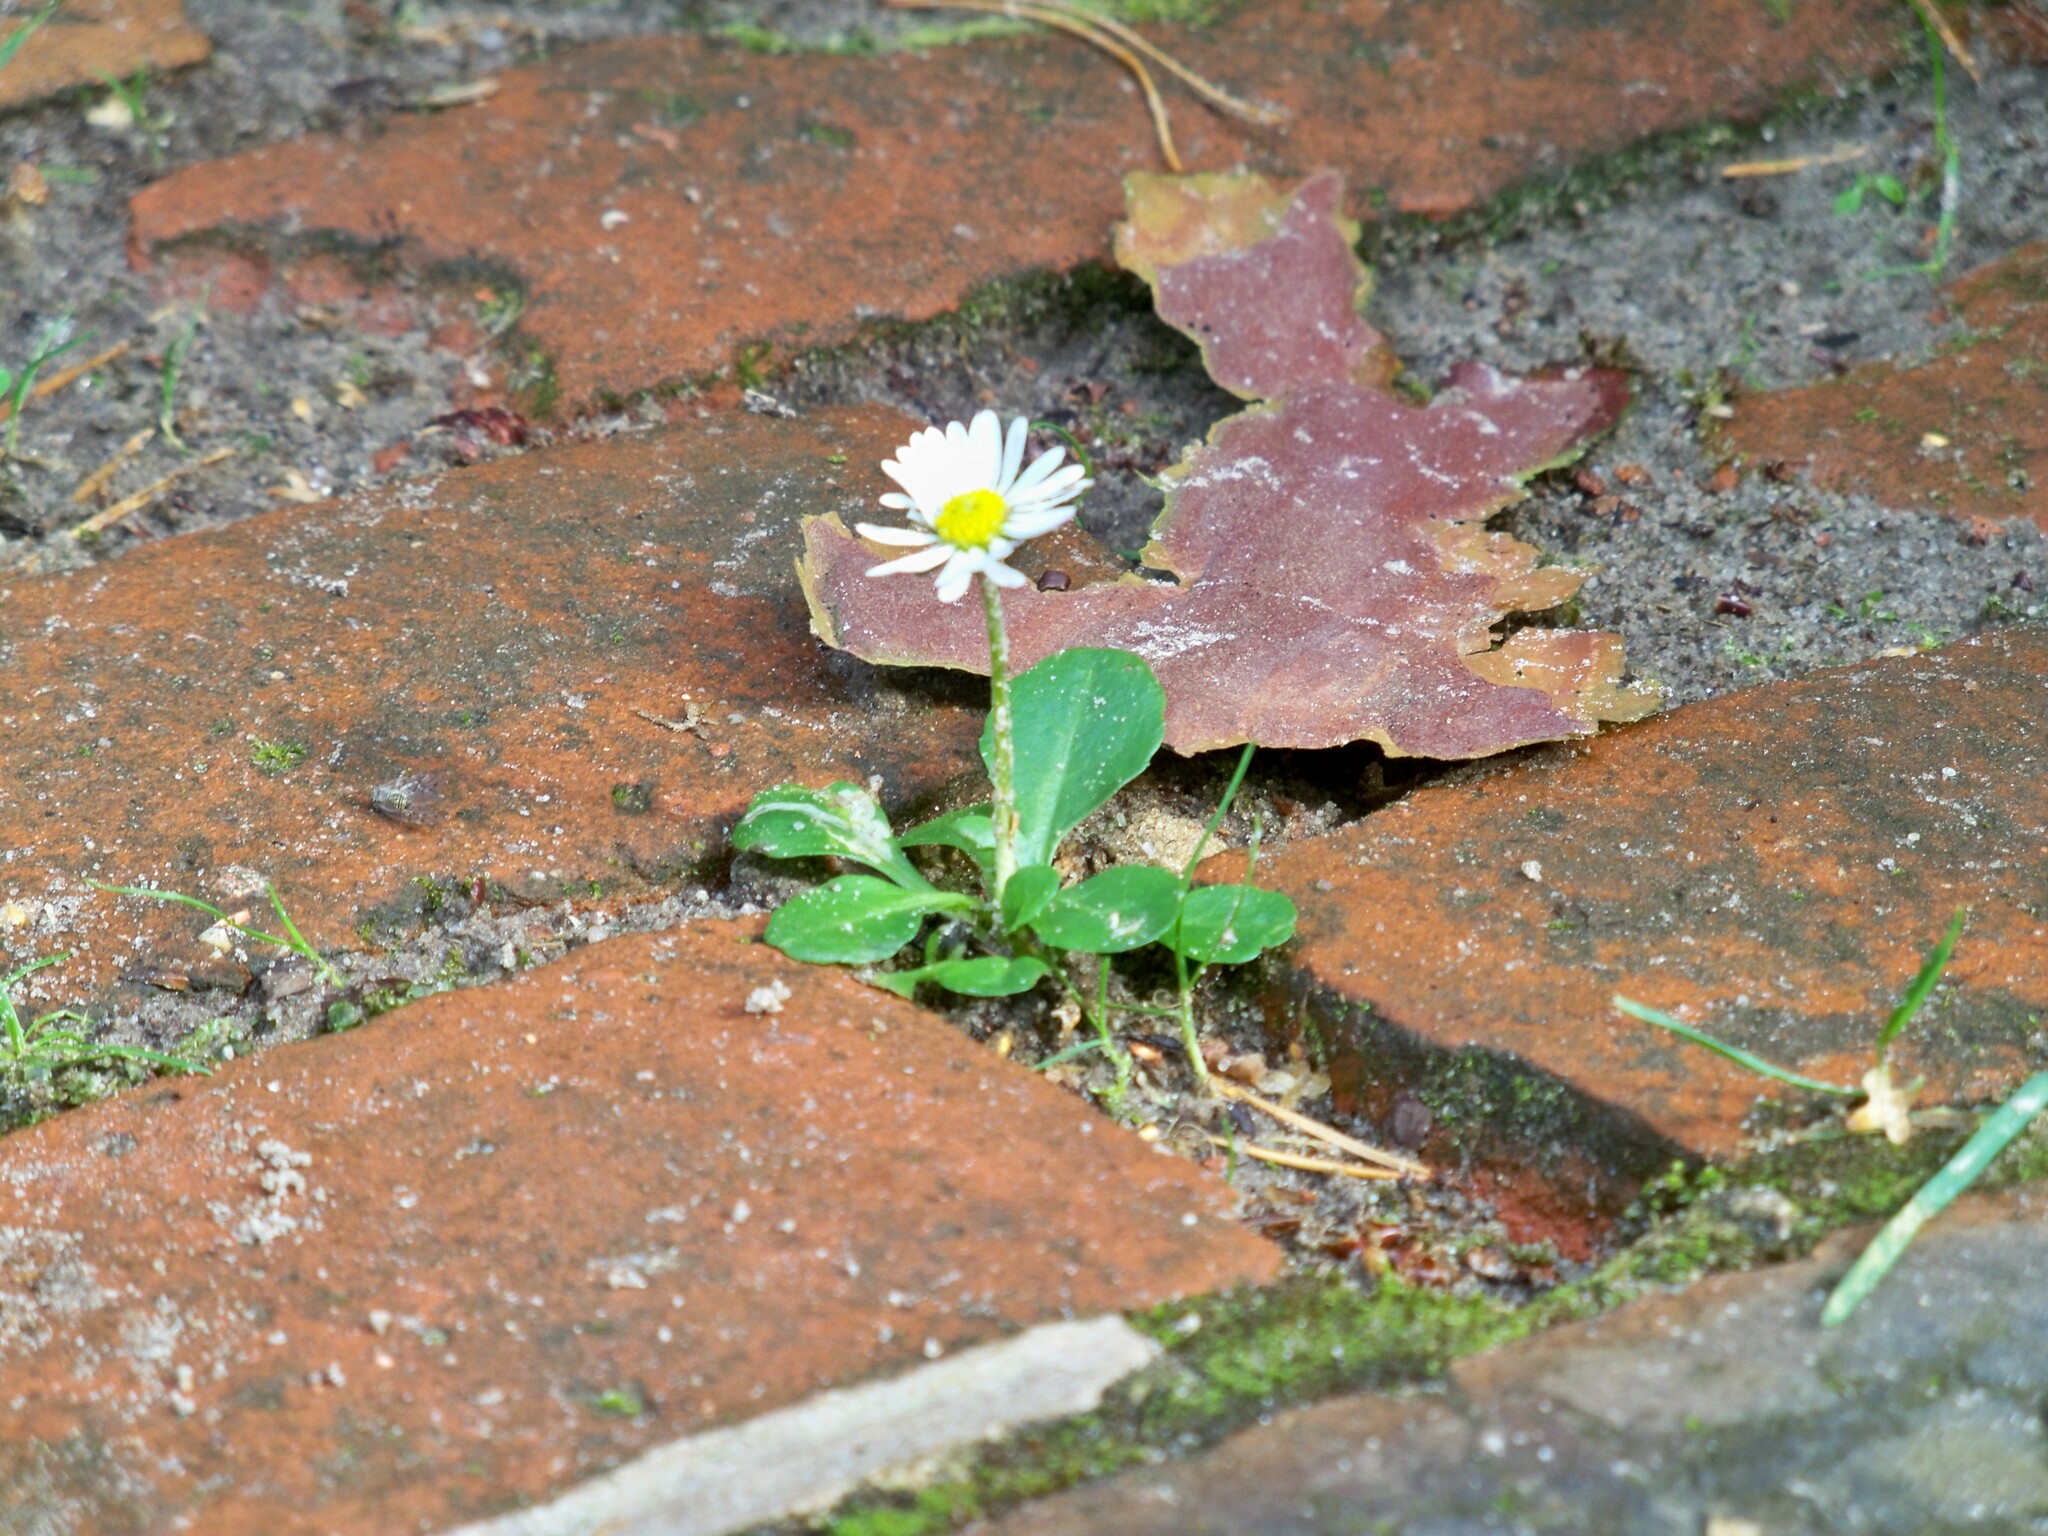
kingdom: Plantae
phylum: Tracheophyta
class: Magnoliopsida
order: Asterales
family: Asteraceae
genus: Bellis
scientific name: Bellis perennis
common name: Lawndaisy
